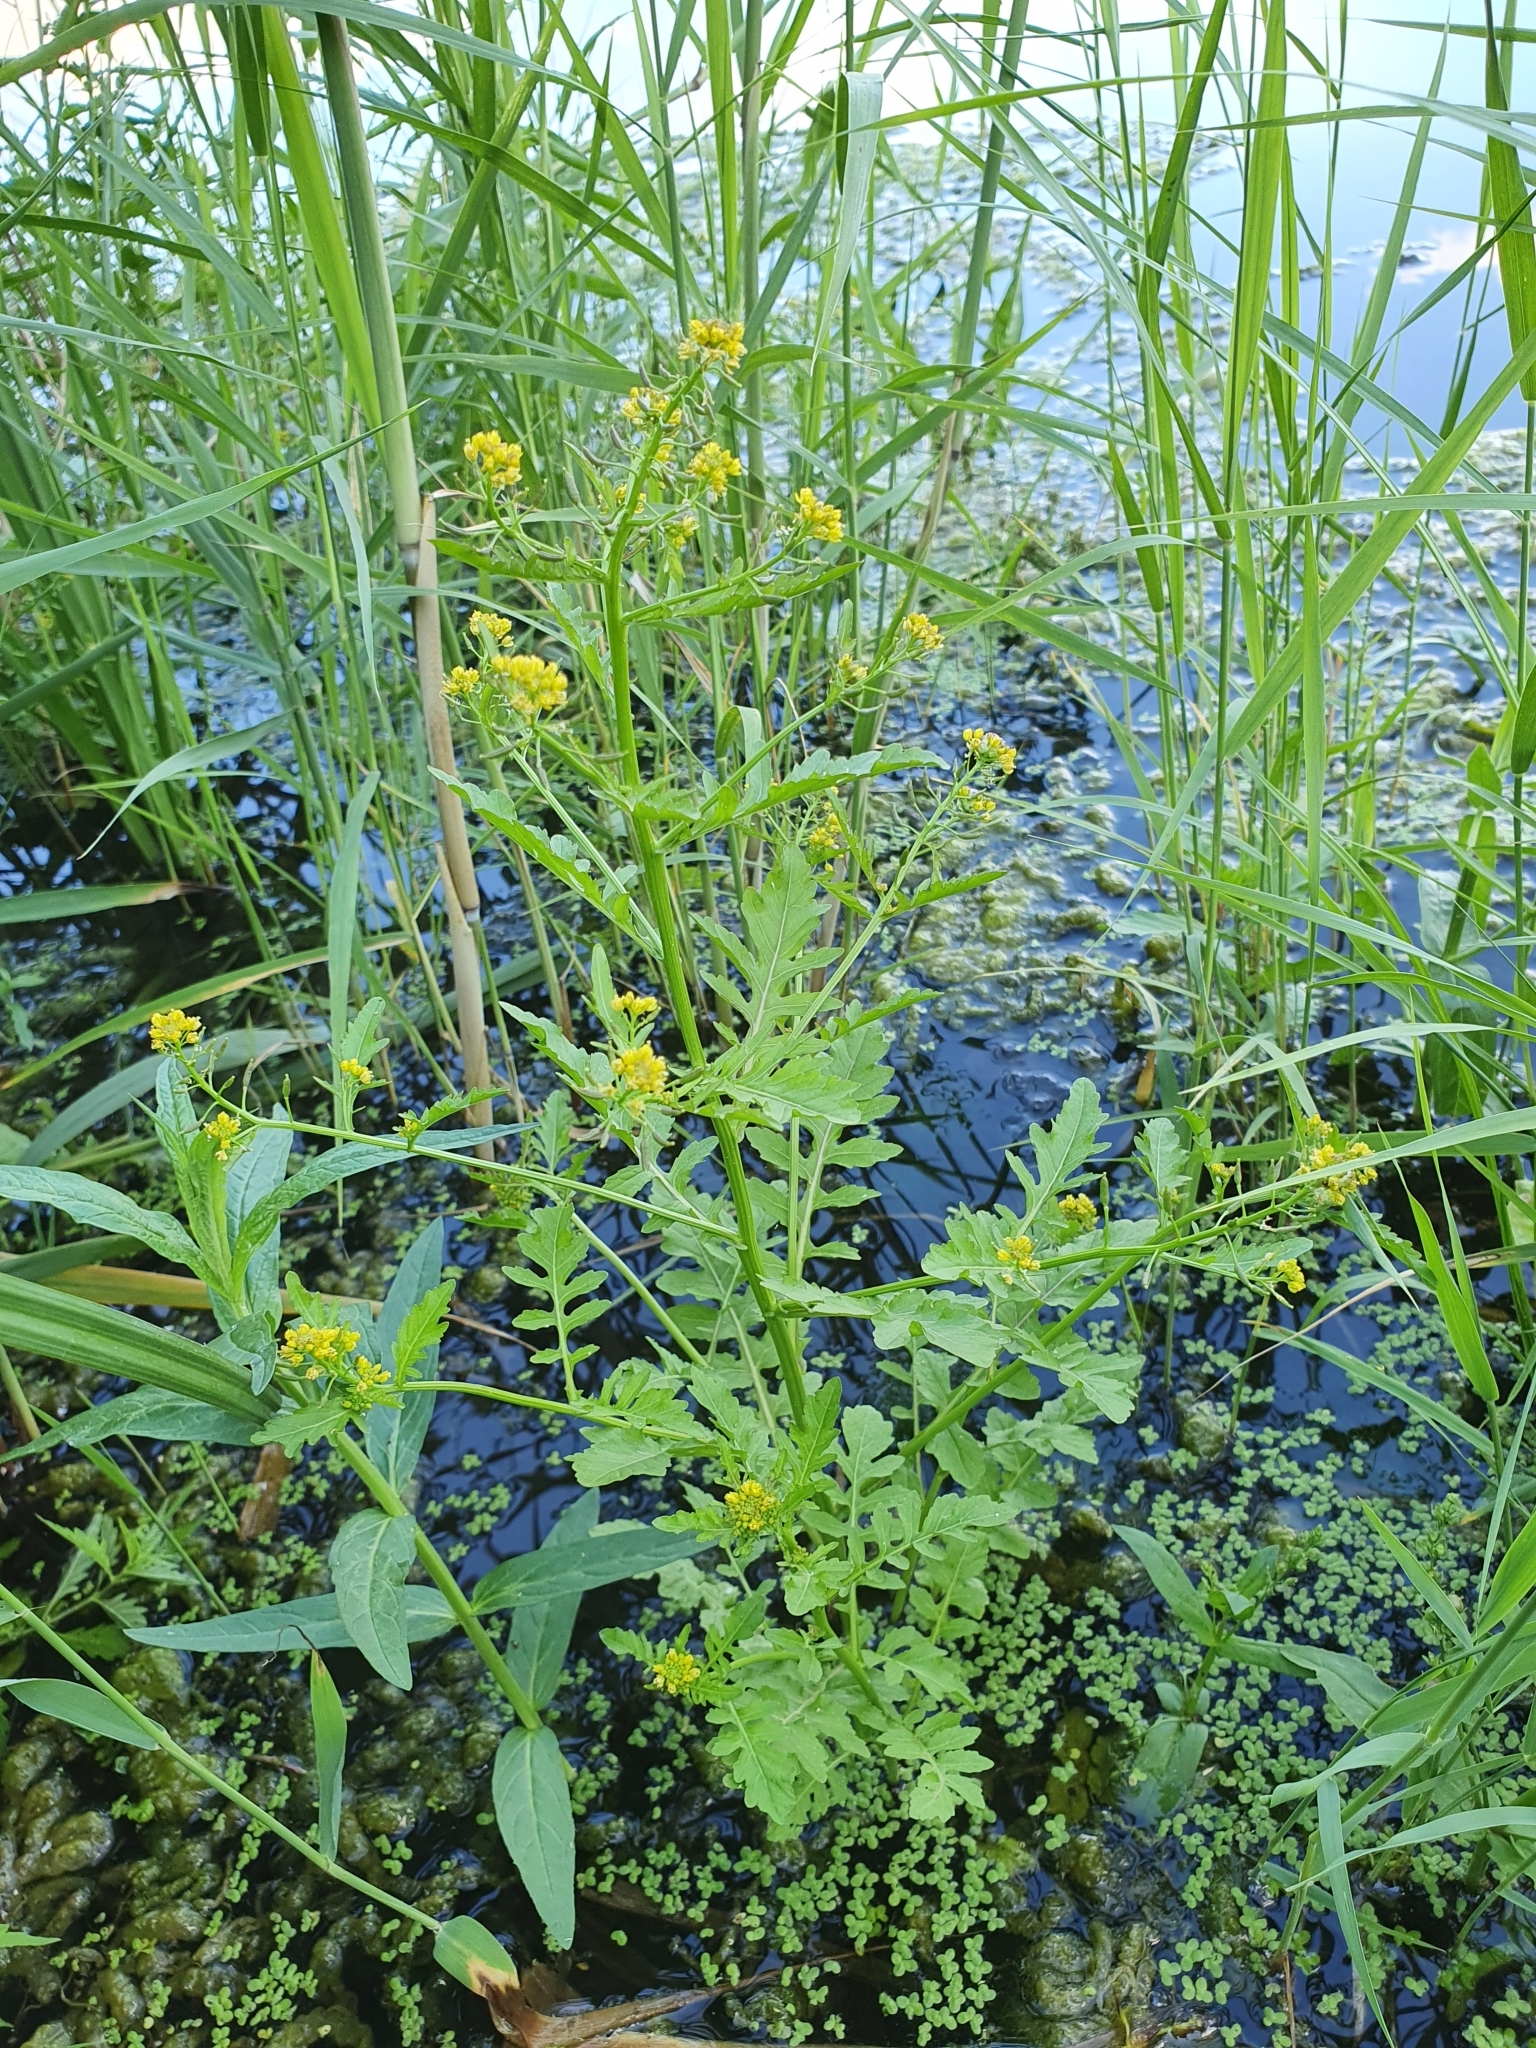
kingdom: Plantae
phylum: Tracheophyta
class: Magnoliopsida
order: Brassicales
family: Brassicaceae
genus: Rorippa
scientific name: Rorippa palustris
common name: Marsh yellow-cress
